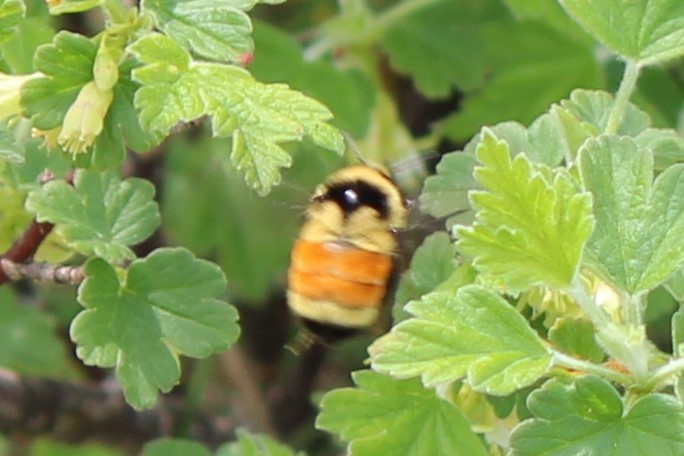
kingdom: Animalia
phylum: Arthropoda
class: Insecta
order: Hymenoptera
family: Apidae
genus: Bombus
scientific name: Bombus ternarius
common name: Tri-colored bumble bee
